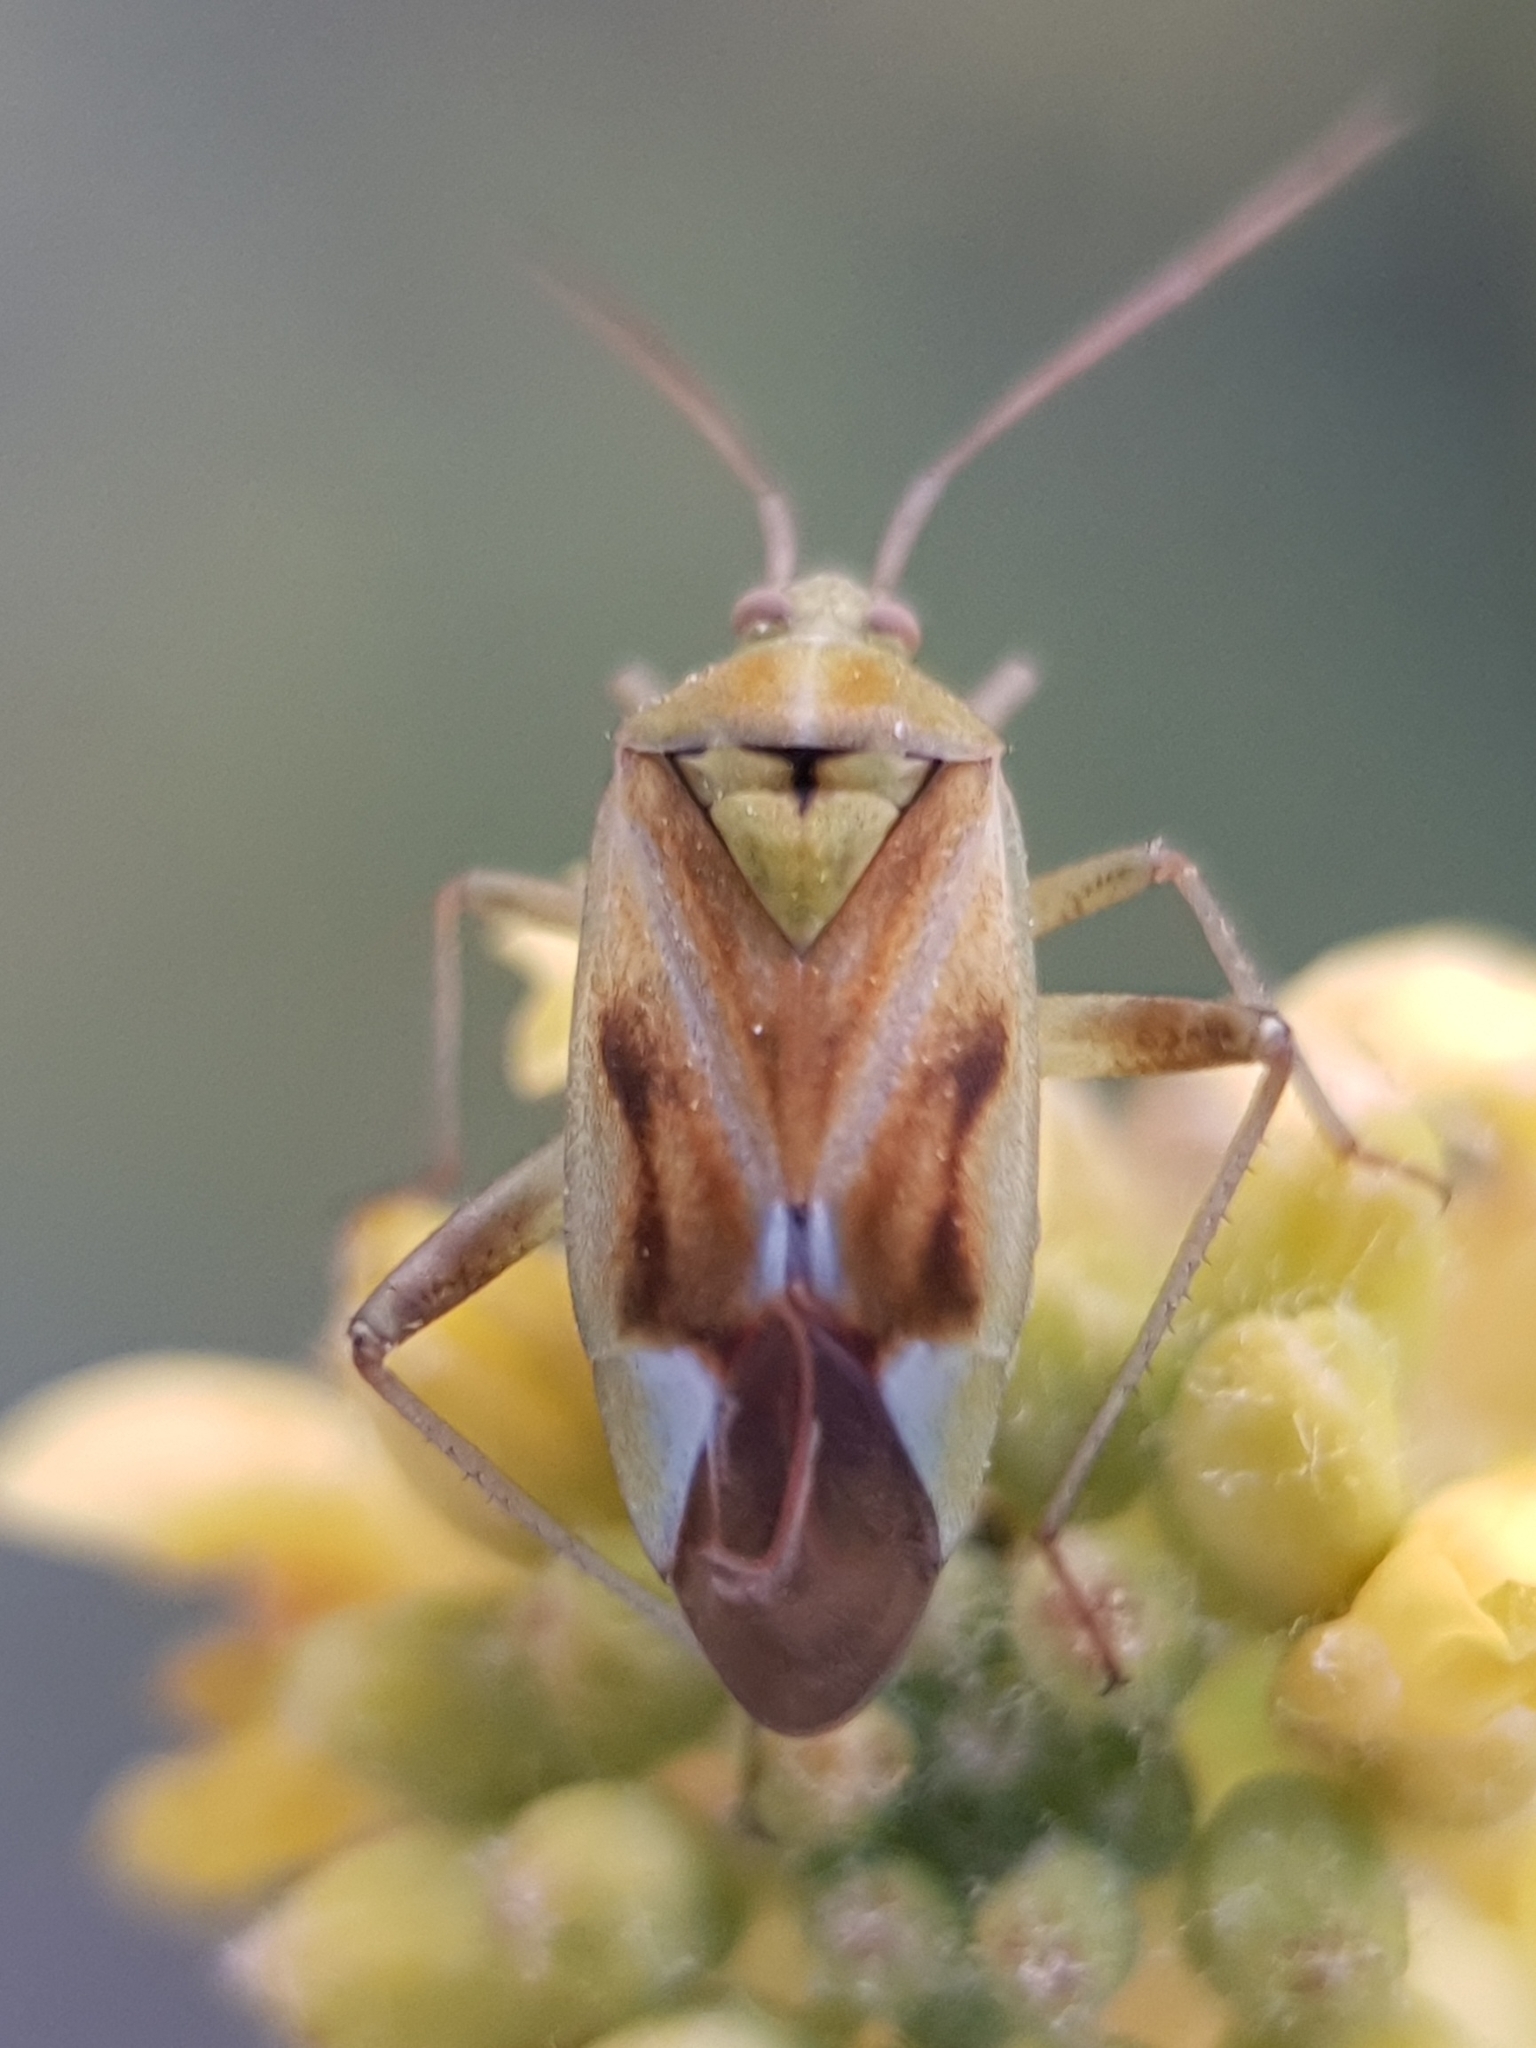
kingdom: Animalia
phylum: Arthropoda
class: Insecta
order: Hemiptera
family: Miridae
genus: Reuterista
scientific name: Reuterista instabilis
